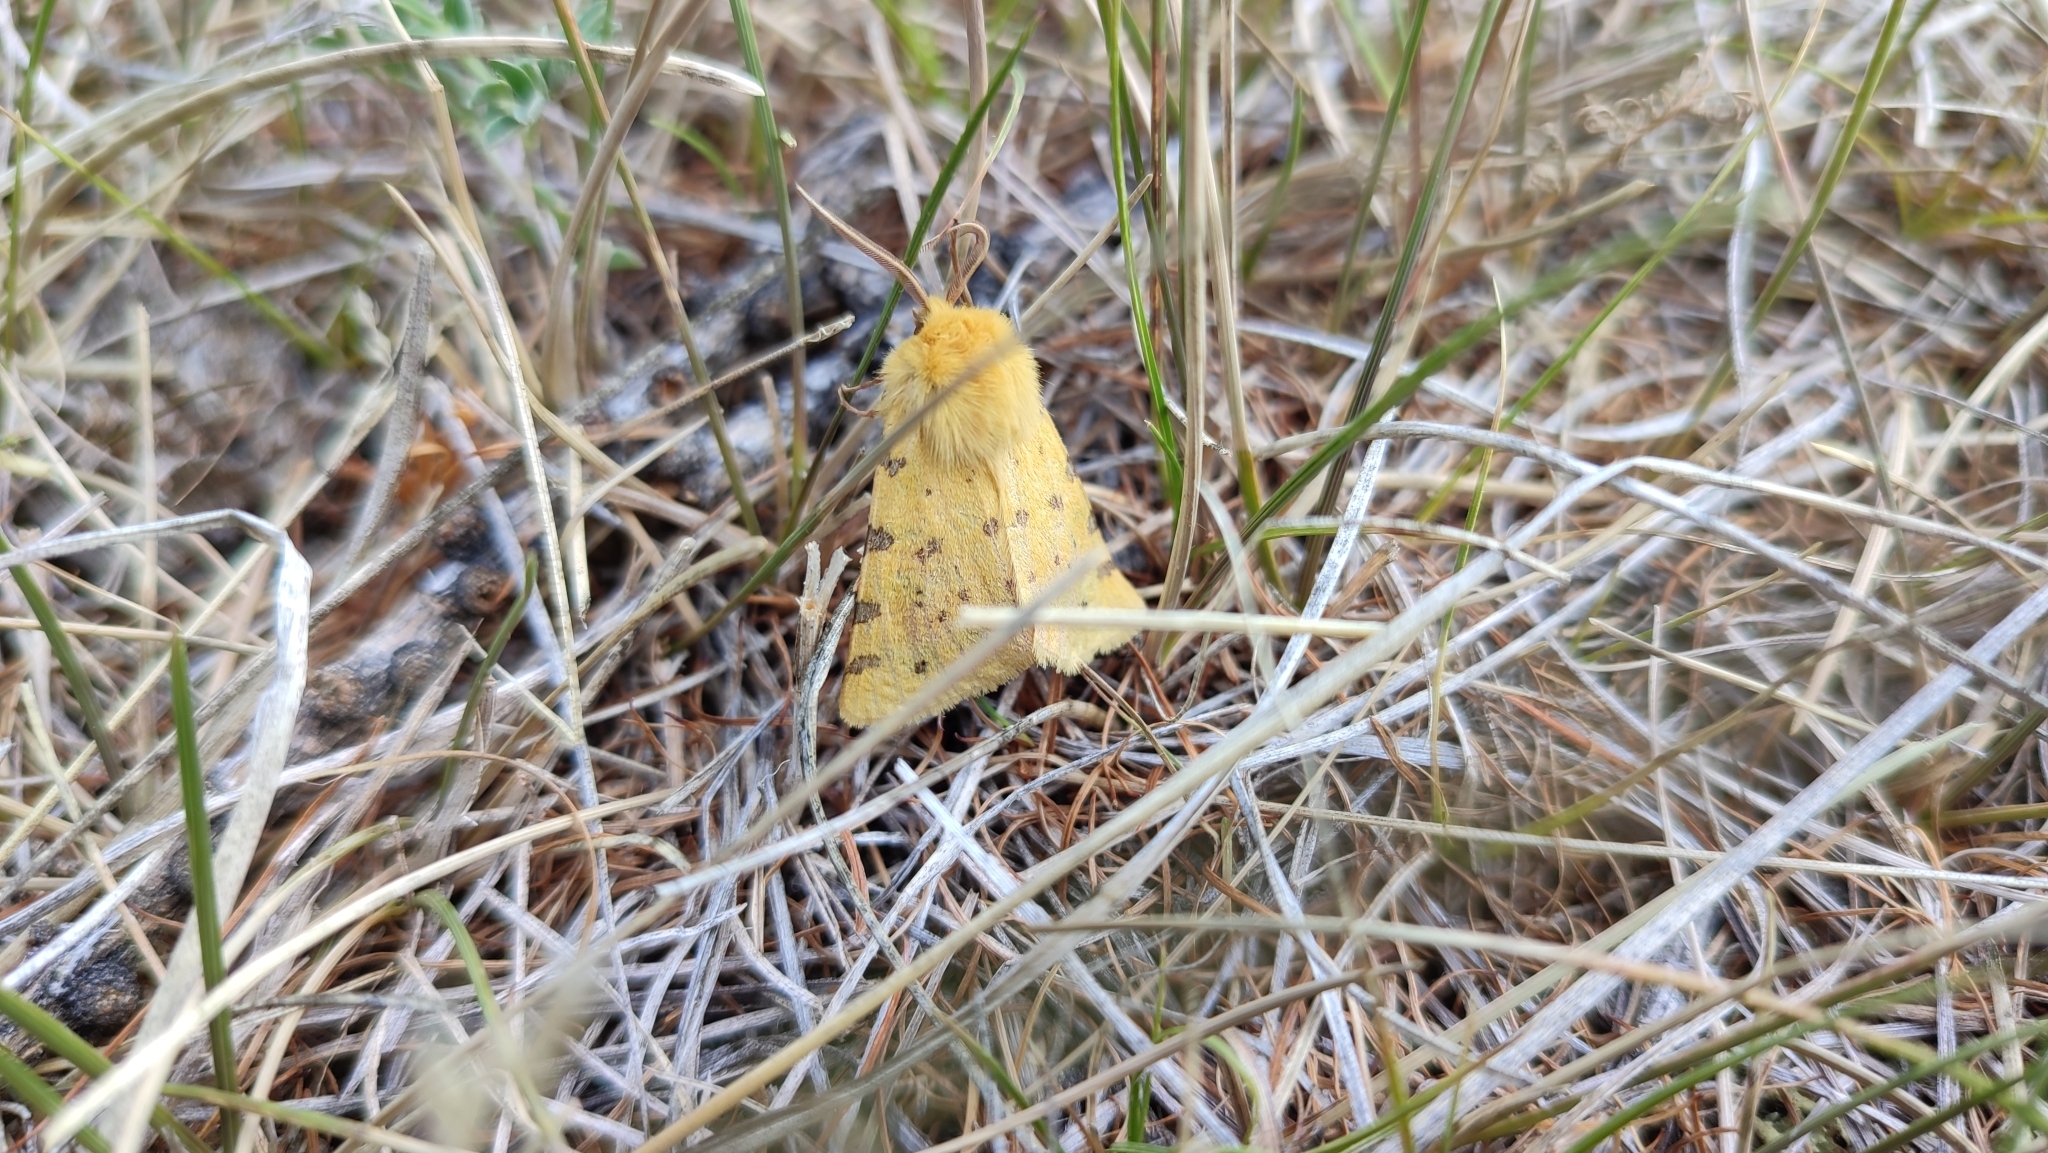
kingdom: Animalia
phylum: Arthropoda
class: Insecta
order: Lepidoptera
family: Erebidae
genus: Rhyparia
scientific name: Rhyparia purpurata
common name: Purple tiger
